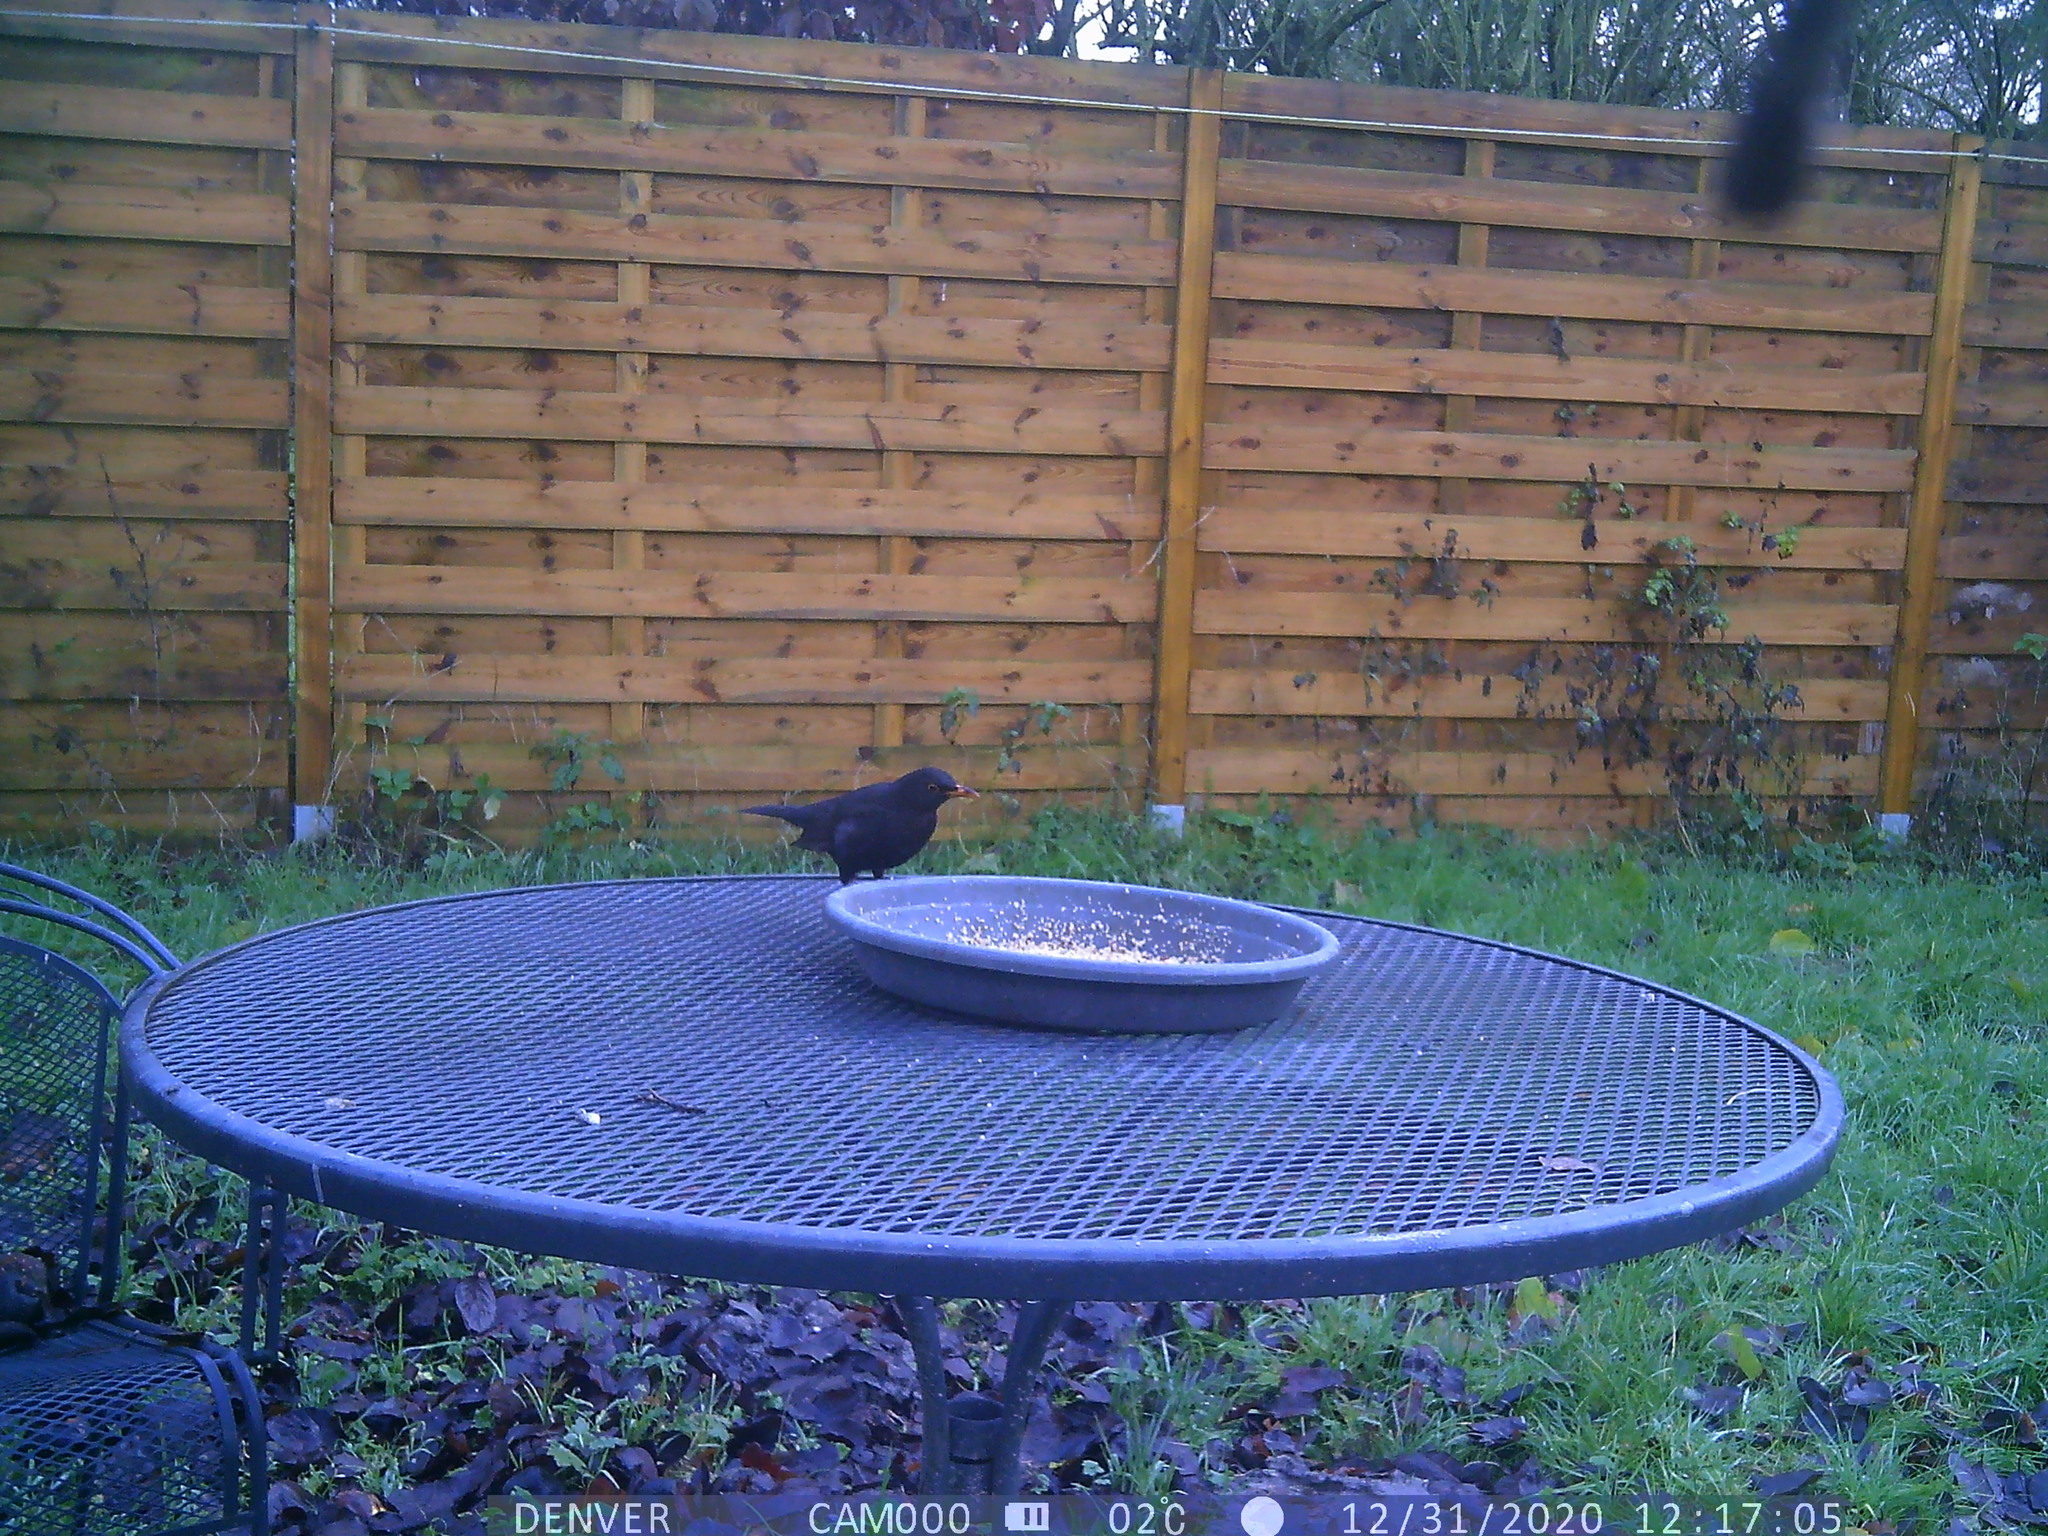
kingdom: Animalia
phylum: Chordata
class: Aves
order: Passeriformes
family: Turdidae
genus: Turdus
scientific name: Turdus merula
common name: Common blackbird
